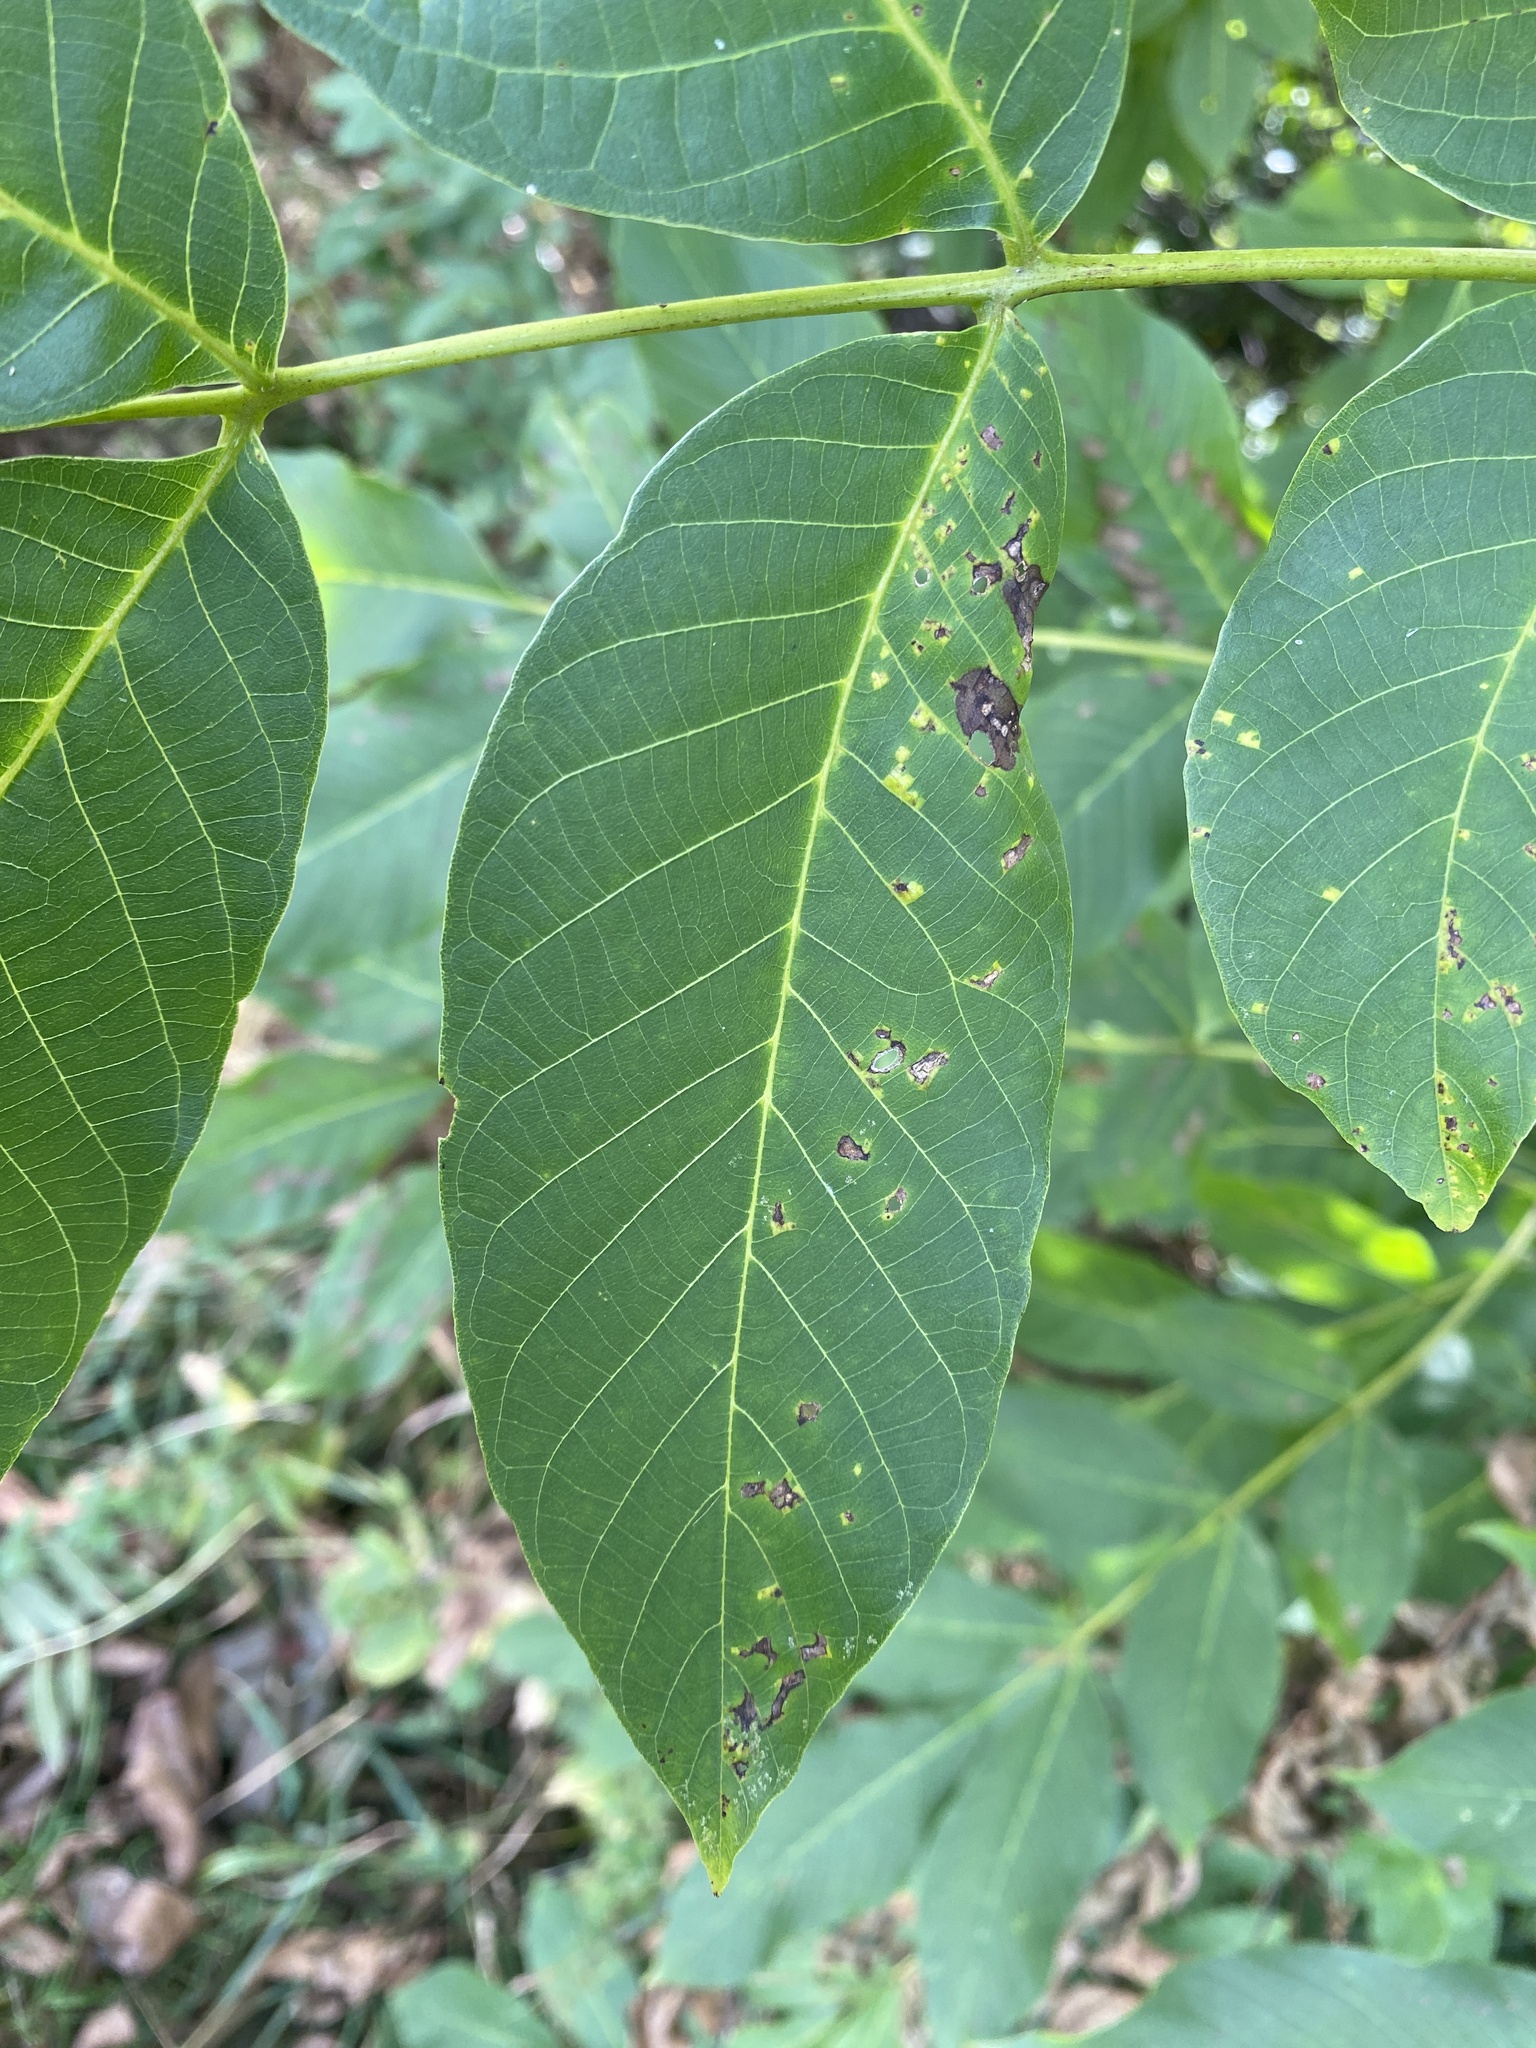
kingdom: Fungi
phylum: Basidiomycota
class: Exobasidiomycetes
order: Microstromatales
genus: Pseudomicrostroma
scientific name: Pseudomicrostroma juglandis
